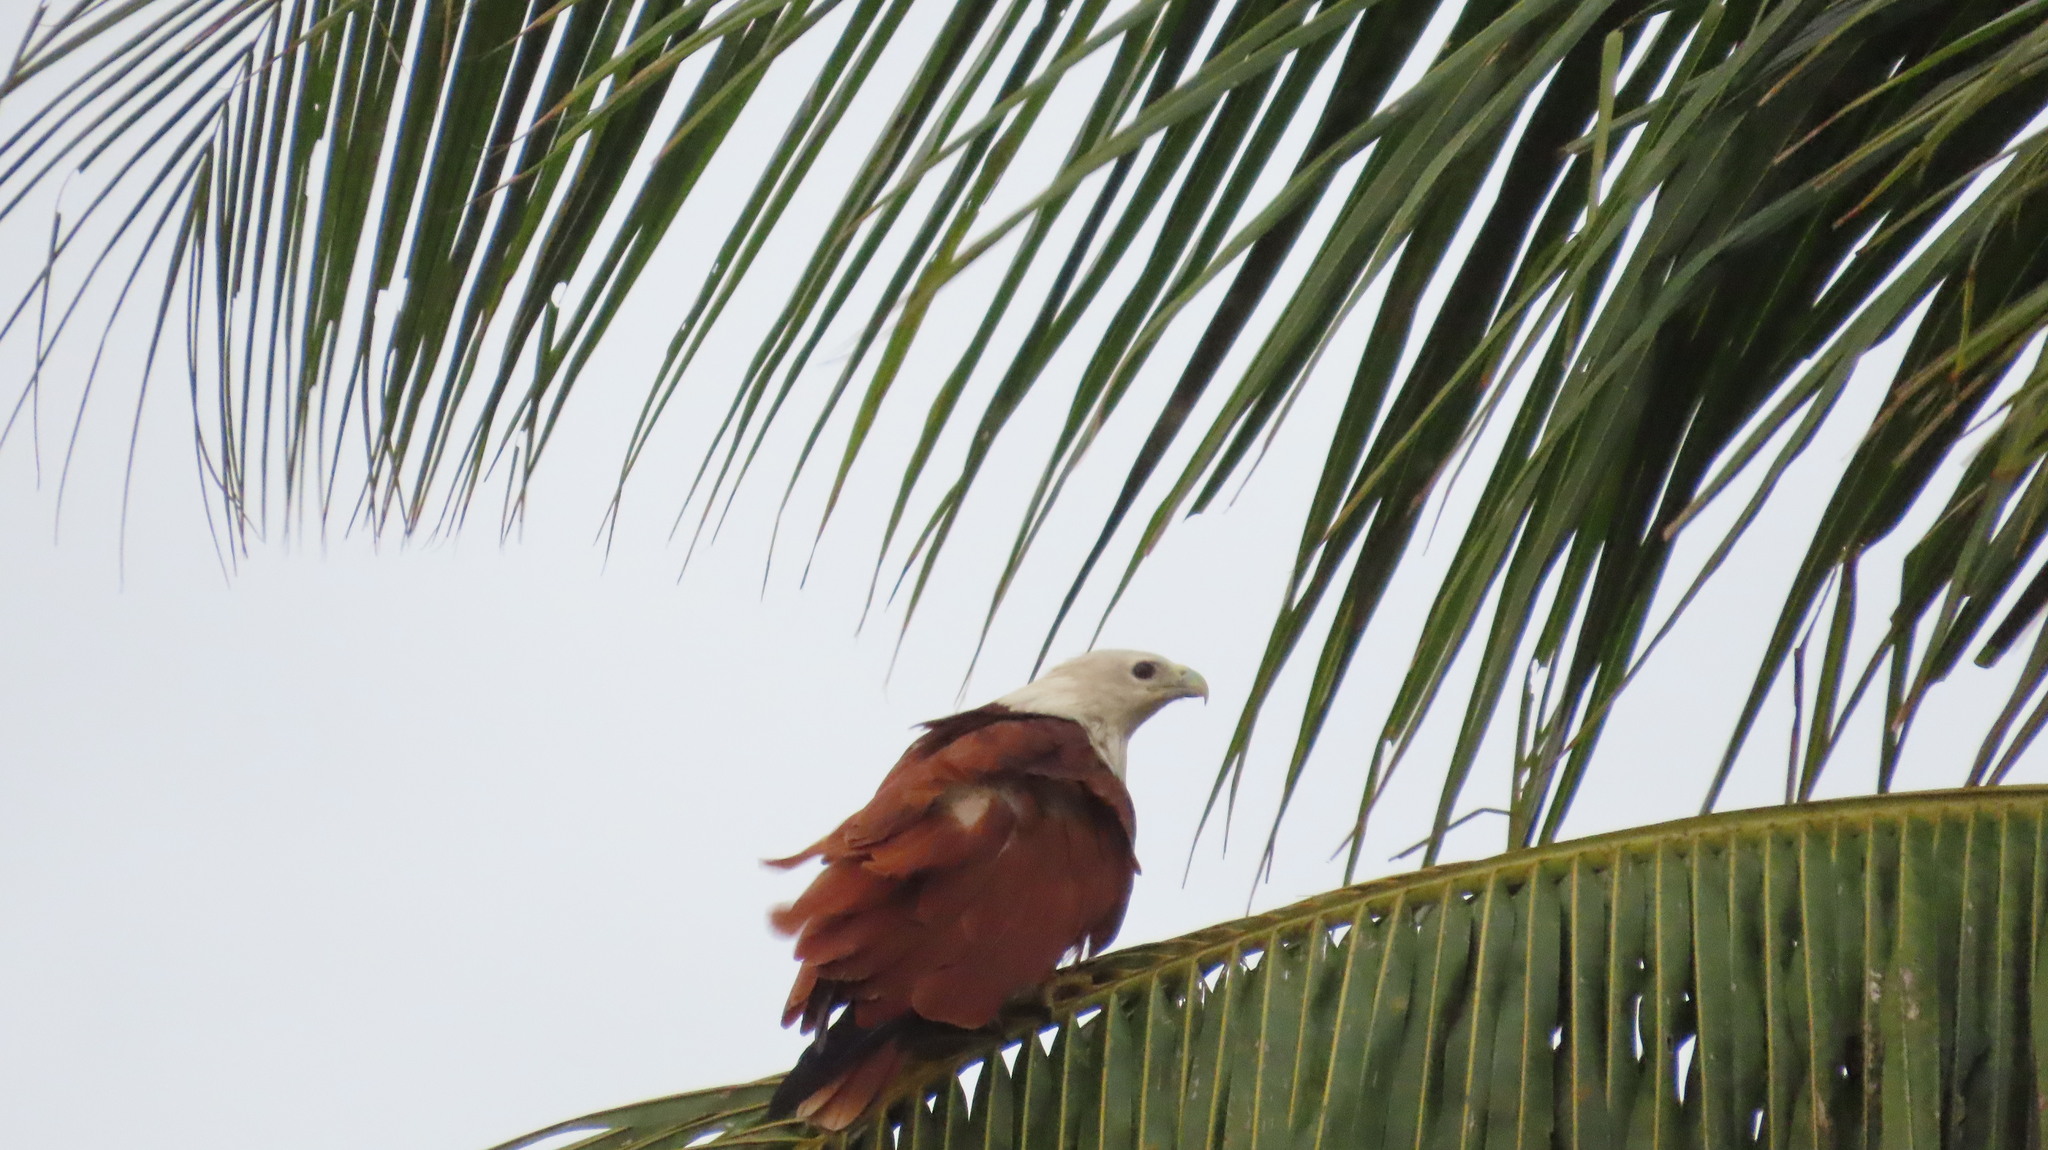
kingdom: Animalia
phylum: Chordata
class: Aves
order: Accipitriformes
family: Accipitridae
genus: Haliastur
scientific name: Haliastur indus
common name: Brahminy kite
